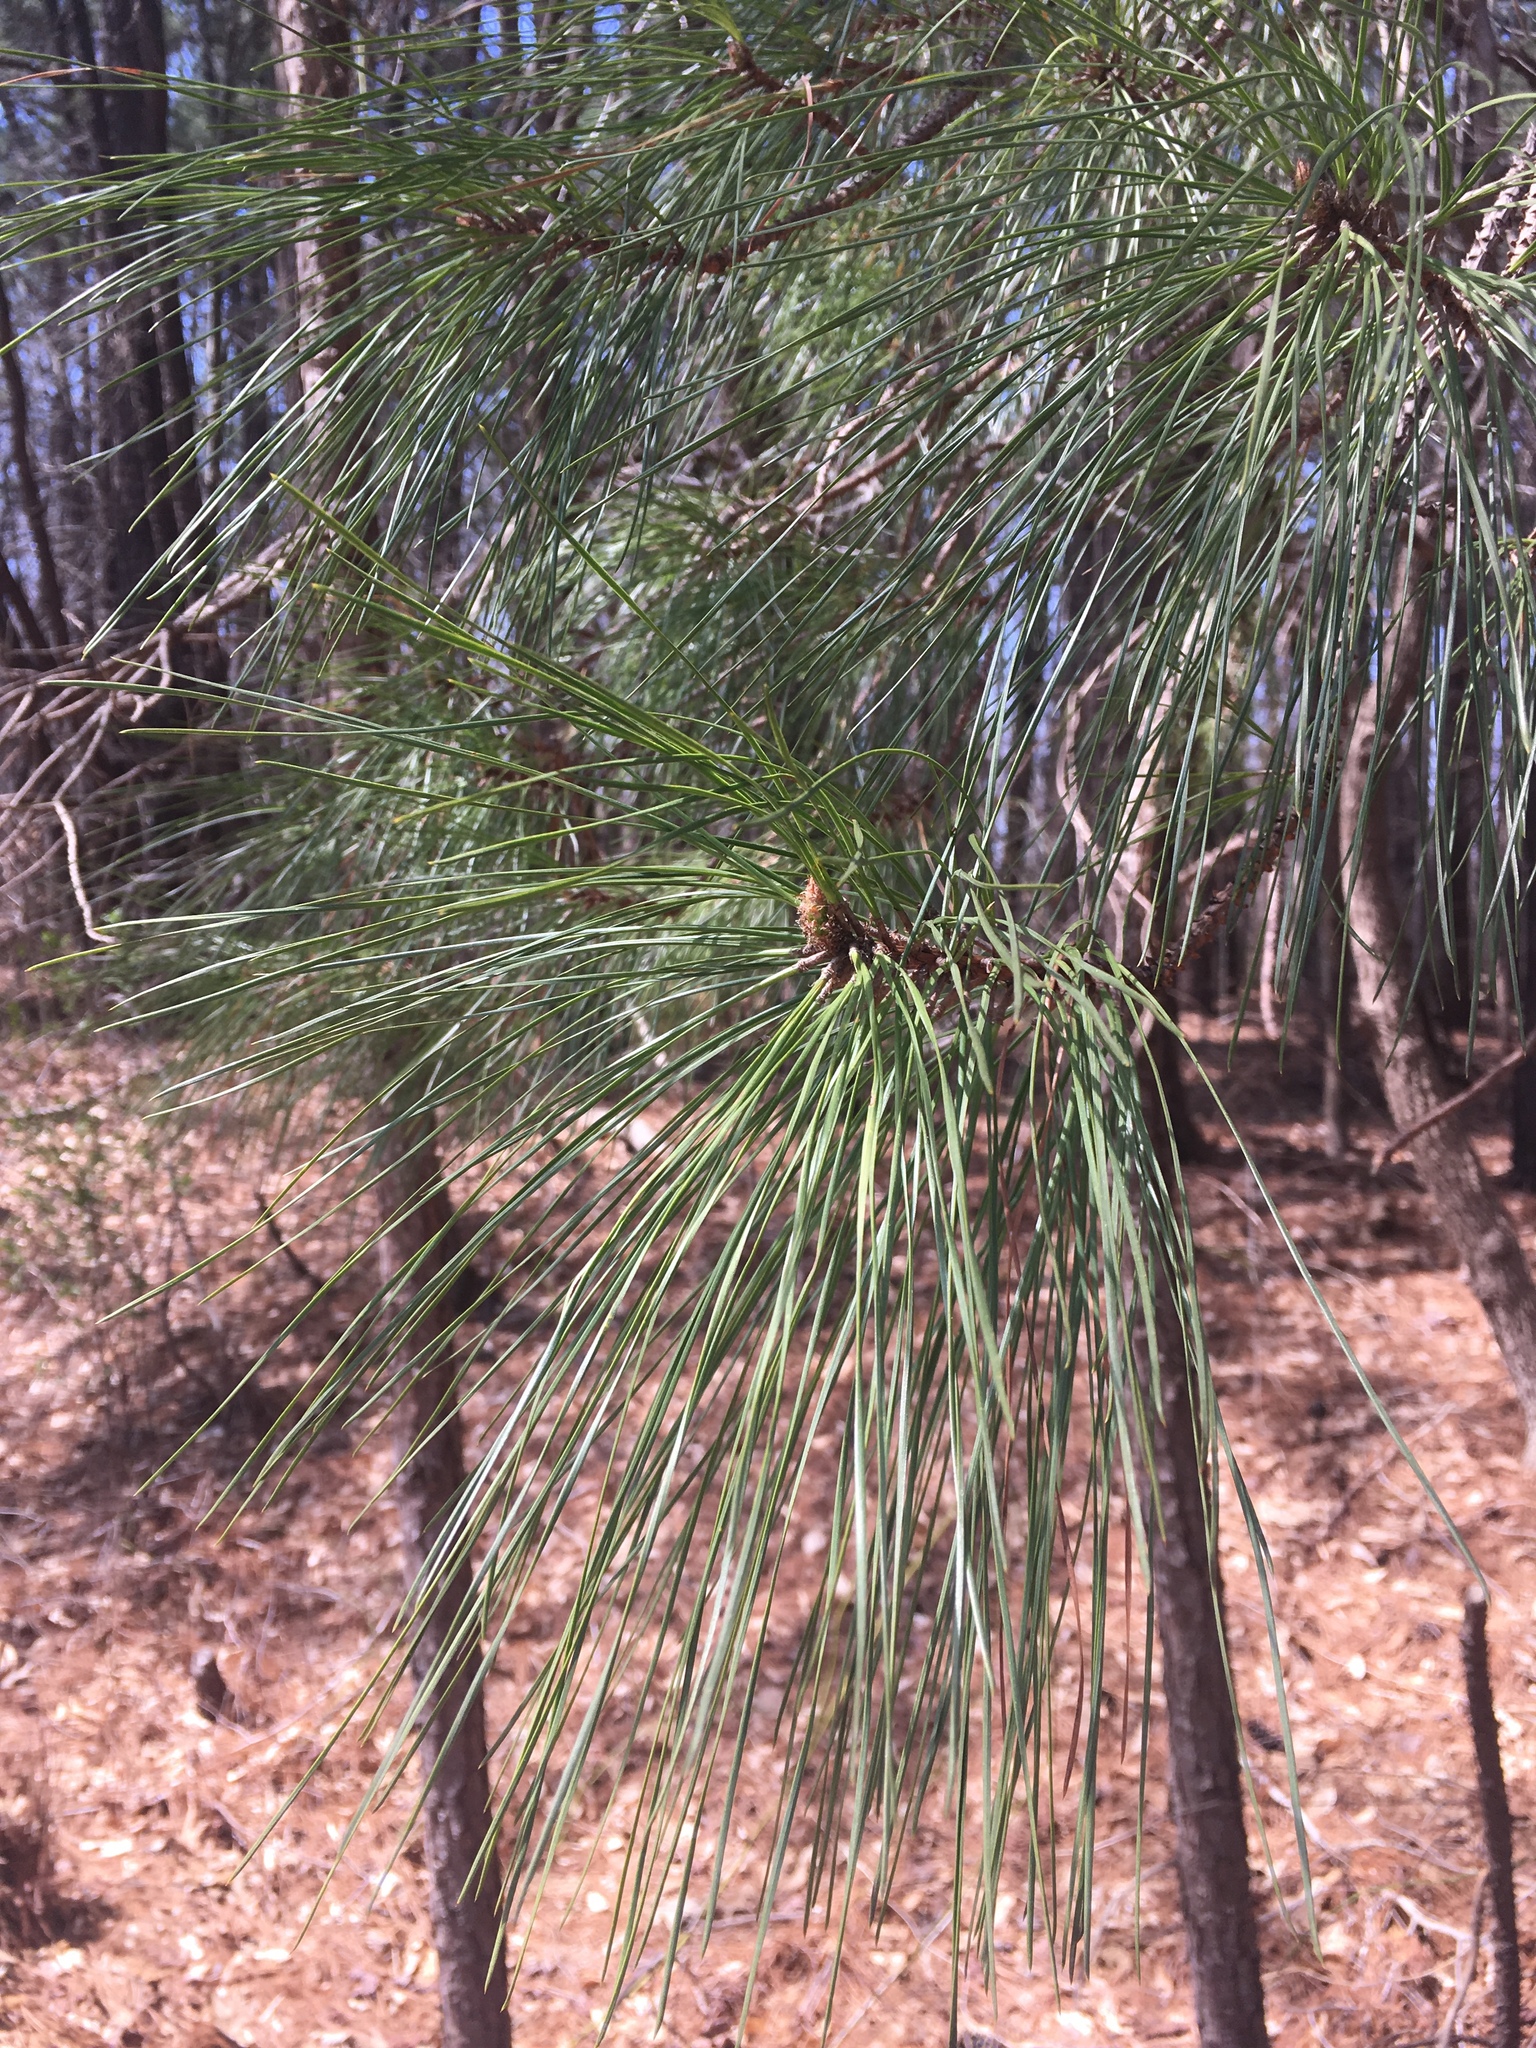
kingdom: Plantae
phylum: Tracheophyta
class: Pinopsida
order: Pinales
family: Pinaceae
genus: Pinus
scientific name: Pinus strobus
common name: Weymouth pine
